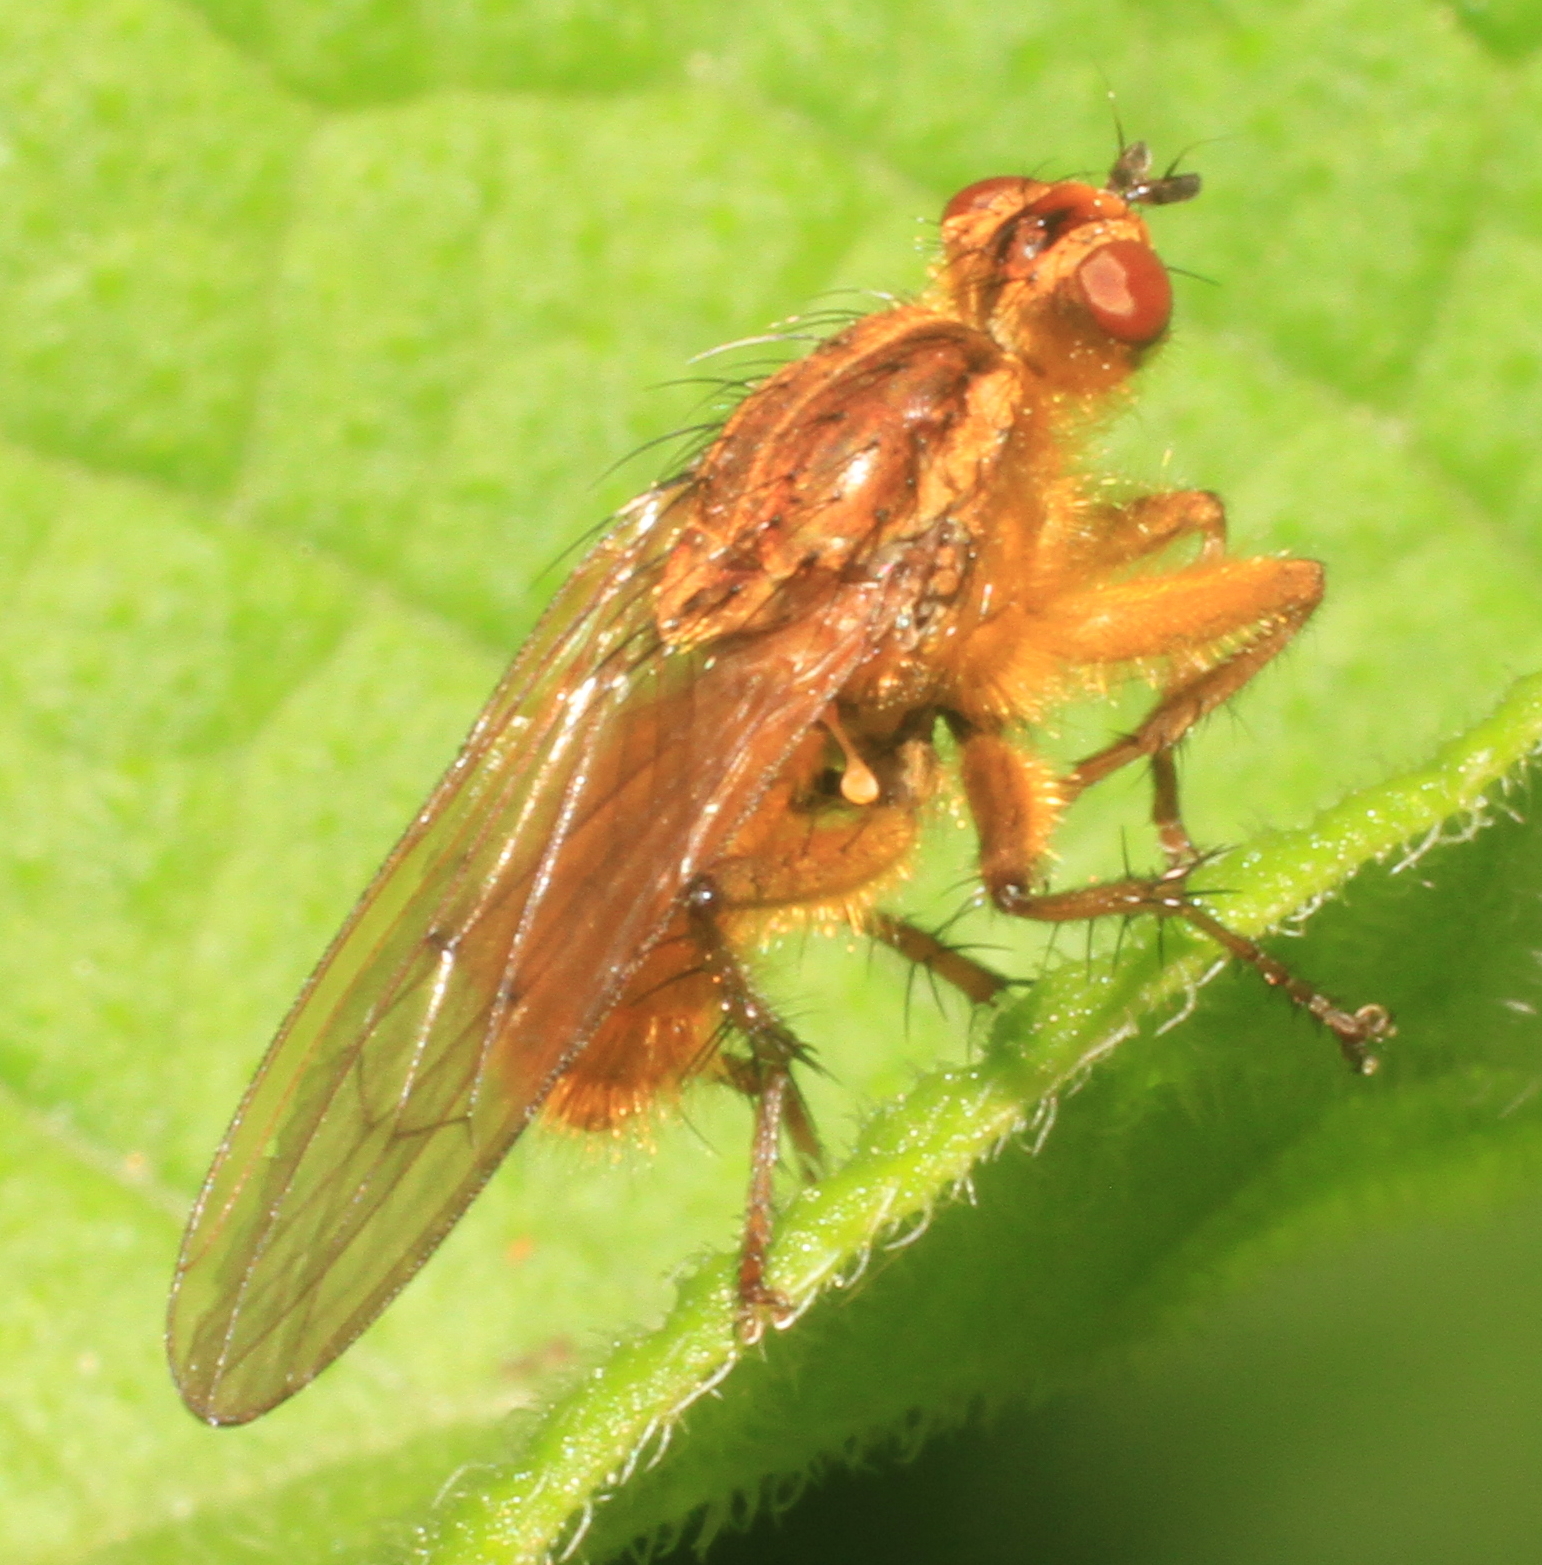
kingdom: Animalia
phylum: Arthropoda
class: Insecta
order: Diptera
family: Scathophagidae
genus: Scathophaga
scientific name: Scathophaga stercoraria
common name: Yellow dung fly
